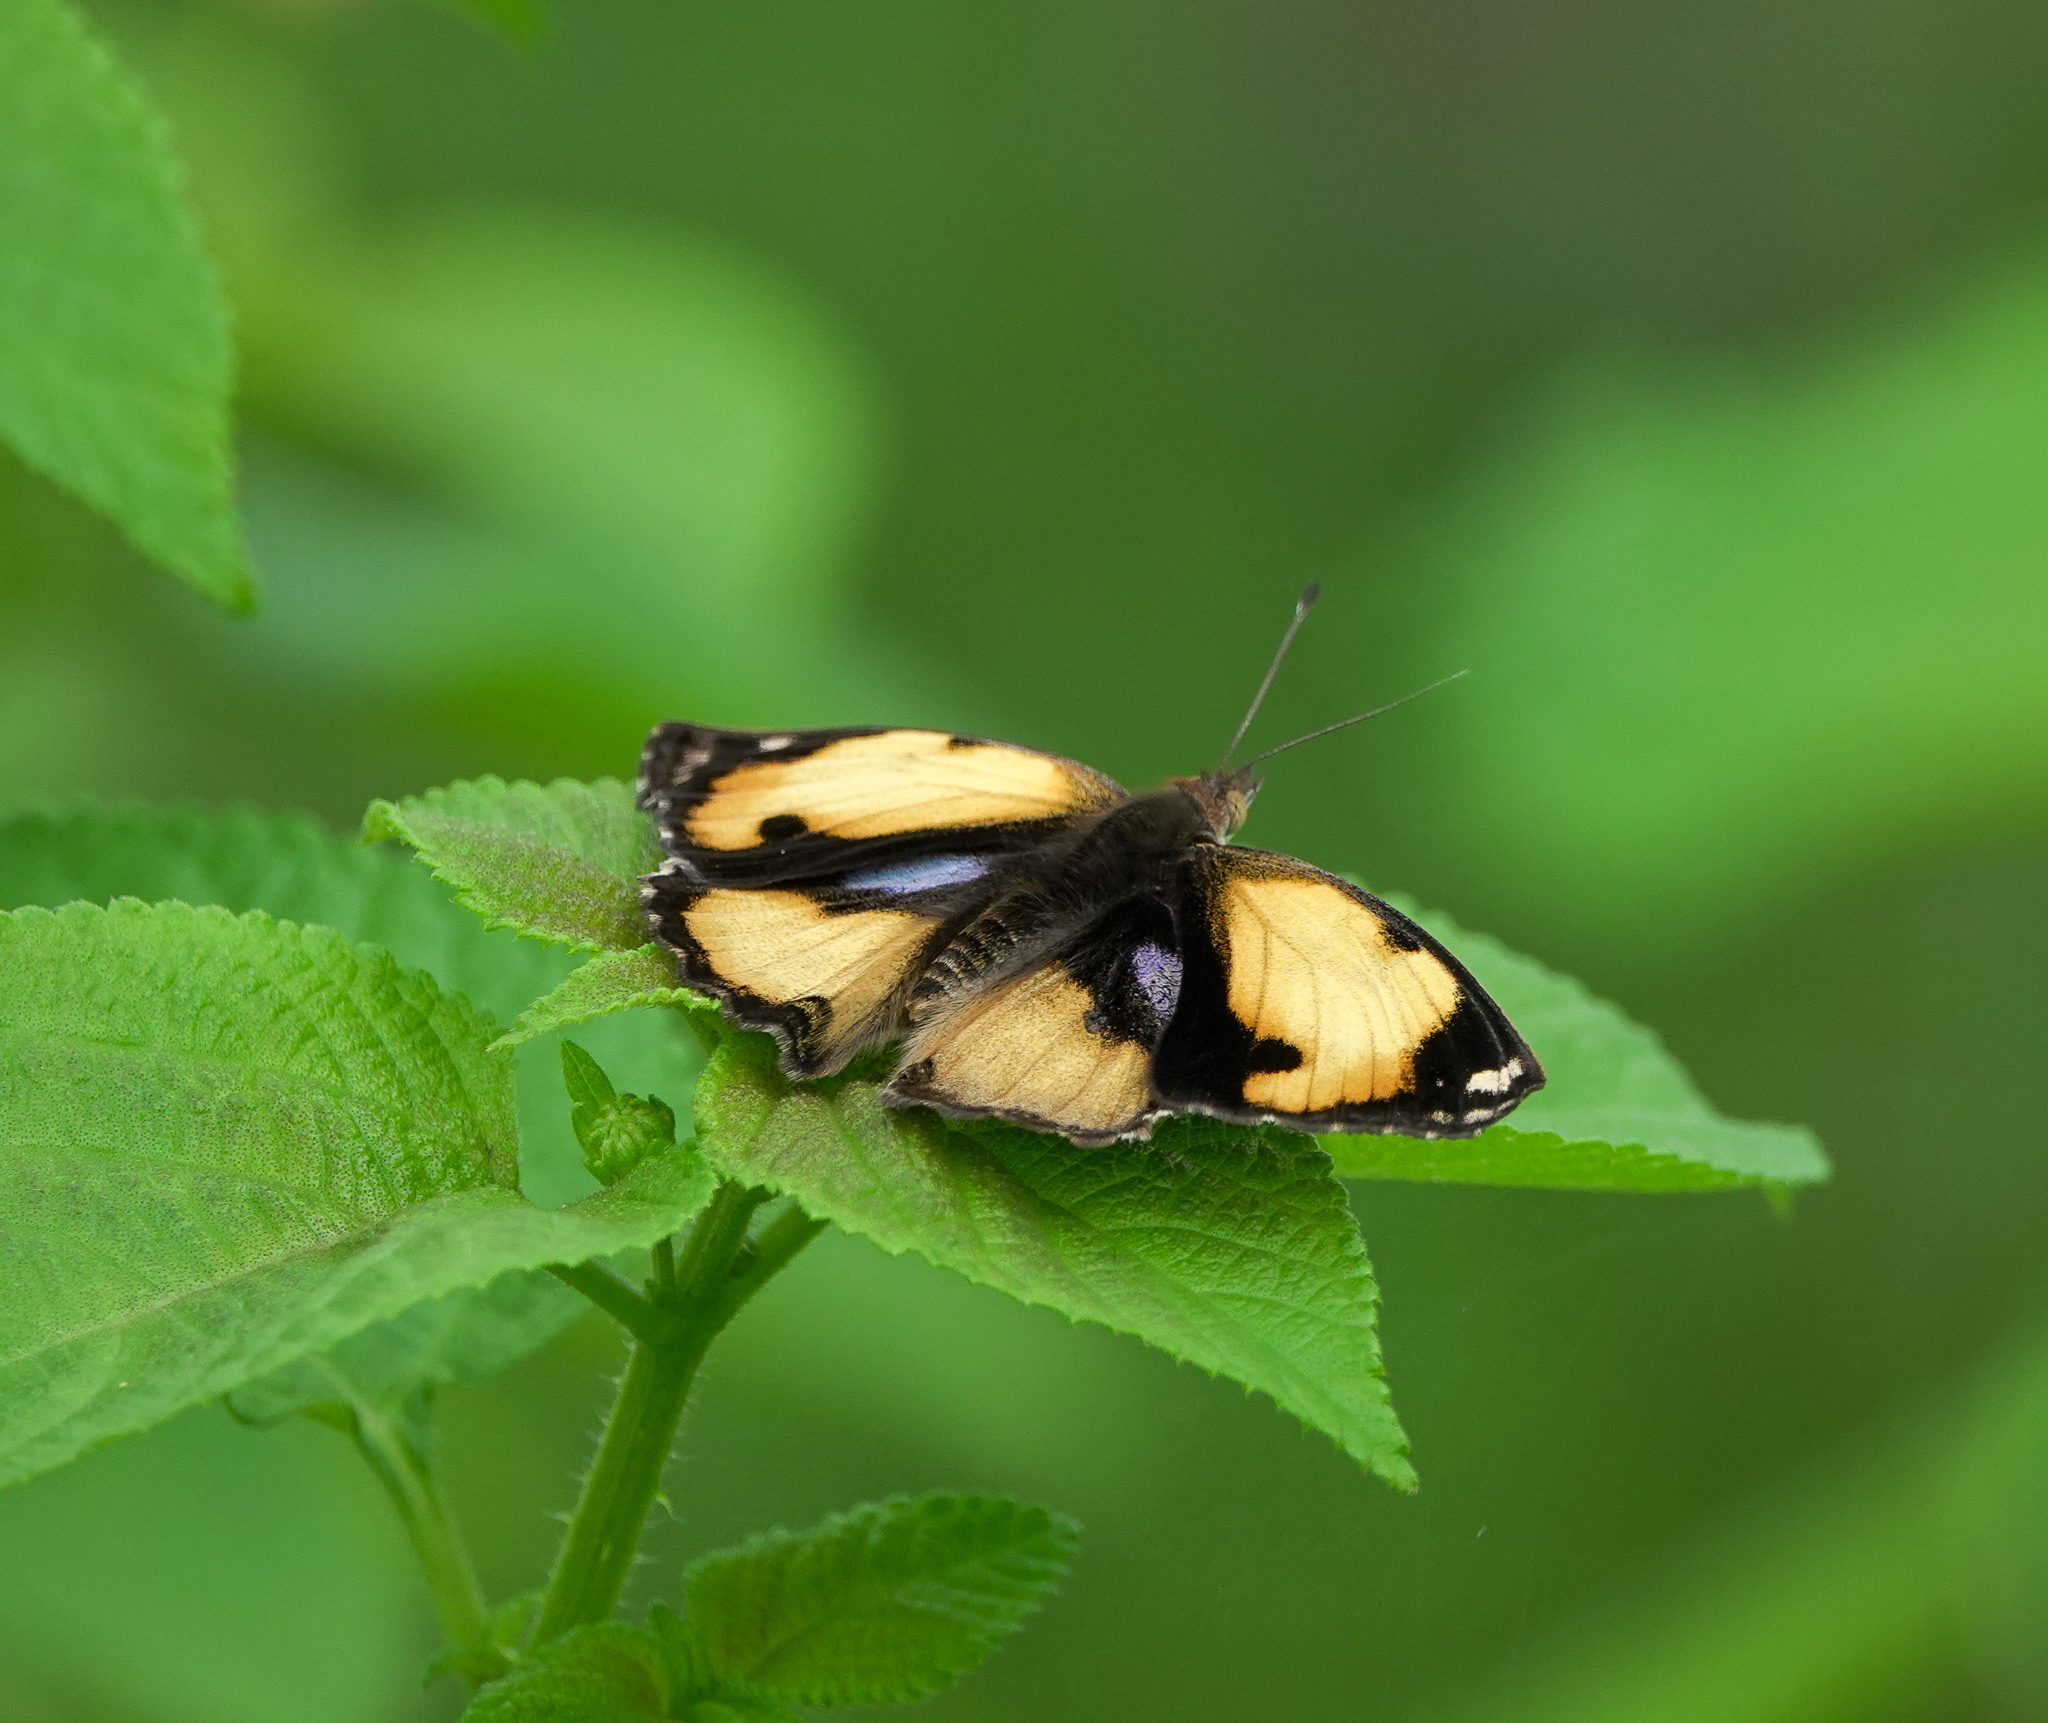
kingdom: Animalia
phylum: Arthropoda
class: Insecta
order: Lepidoptera
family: Nymphalidae
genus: Junonia
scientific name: Junonia hierta
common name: Yellow pansy
